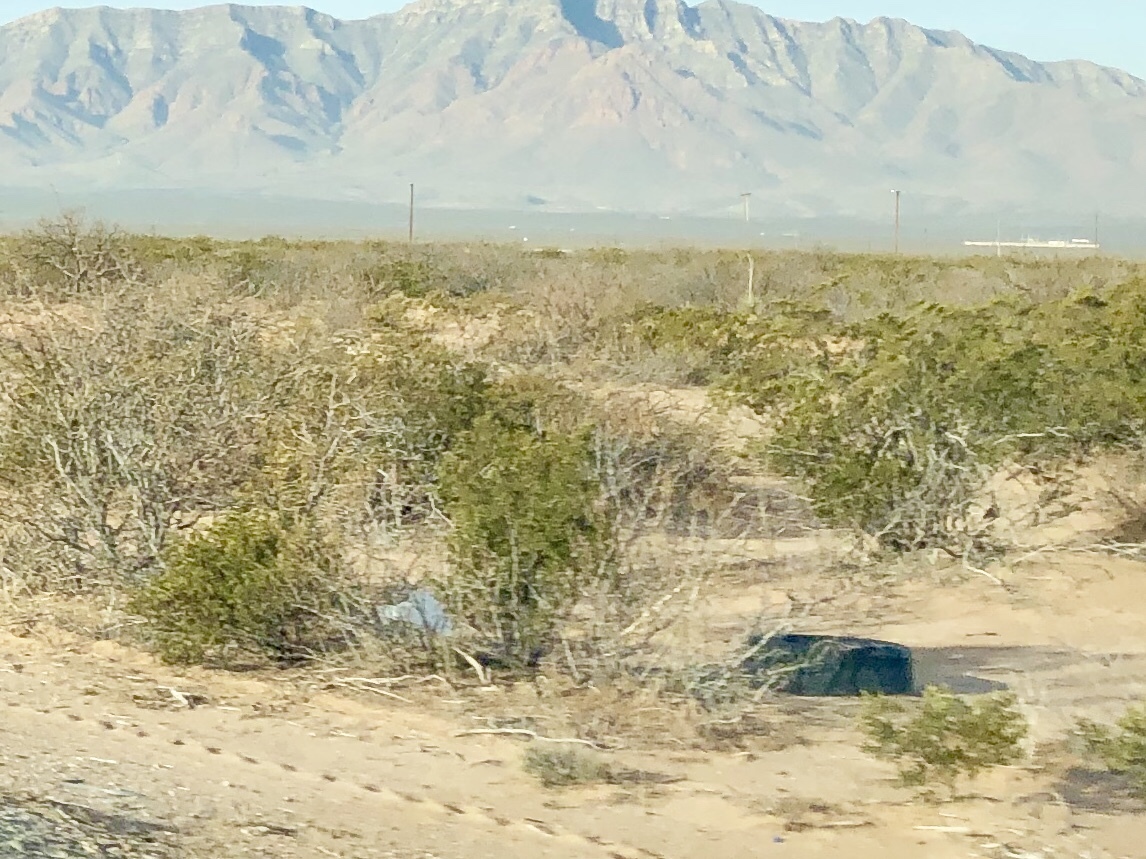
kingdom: Plantae
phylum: Tracheophyta
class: Magnoliopsida
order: Zygophyllales
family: Zygophyllaceae
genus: Larrea
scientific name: Larrea tridentata
